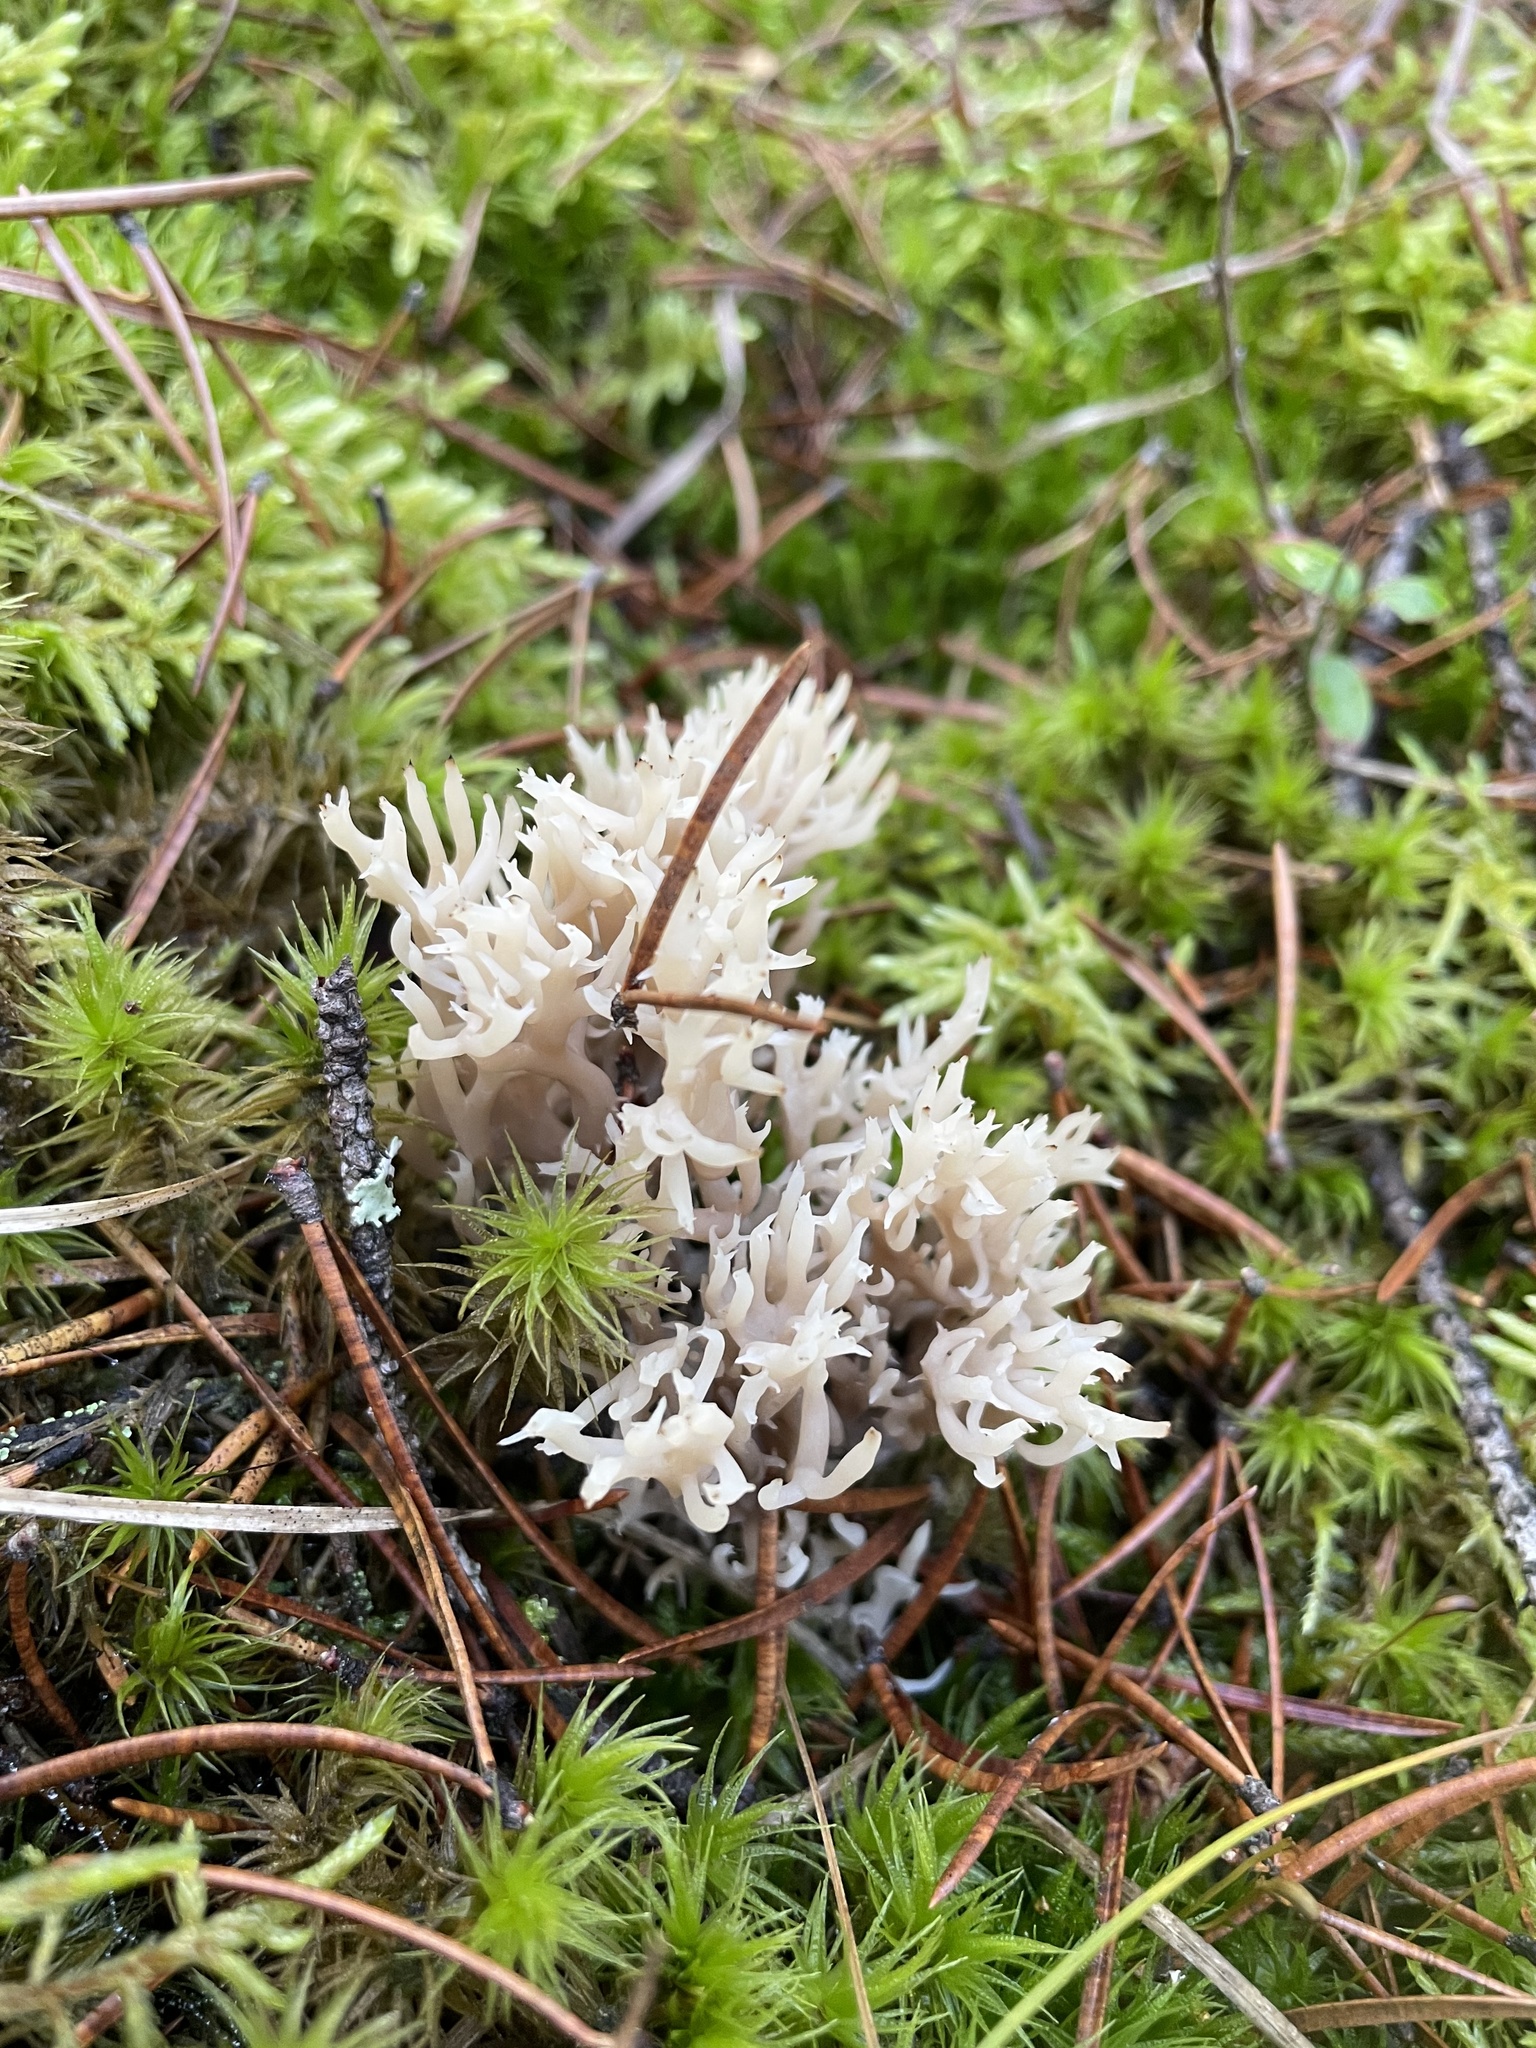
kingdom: Fungi
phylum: Basidiomycota
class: Agaricomycetes
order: Cantharellales
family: Hydnaceae
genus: Clavulina
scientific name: Clavulina coralloides
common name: Crested coral
